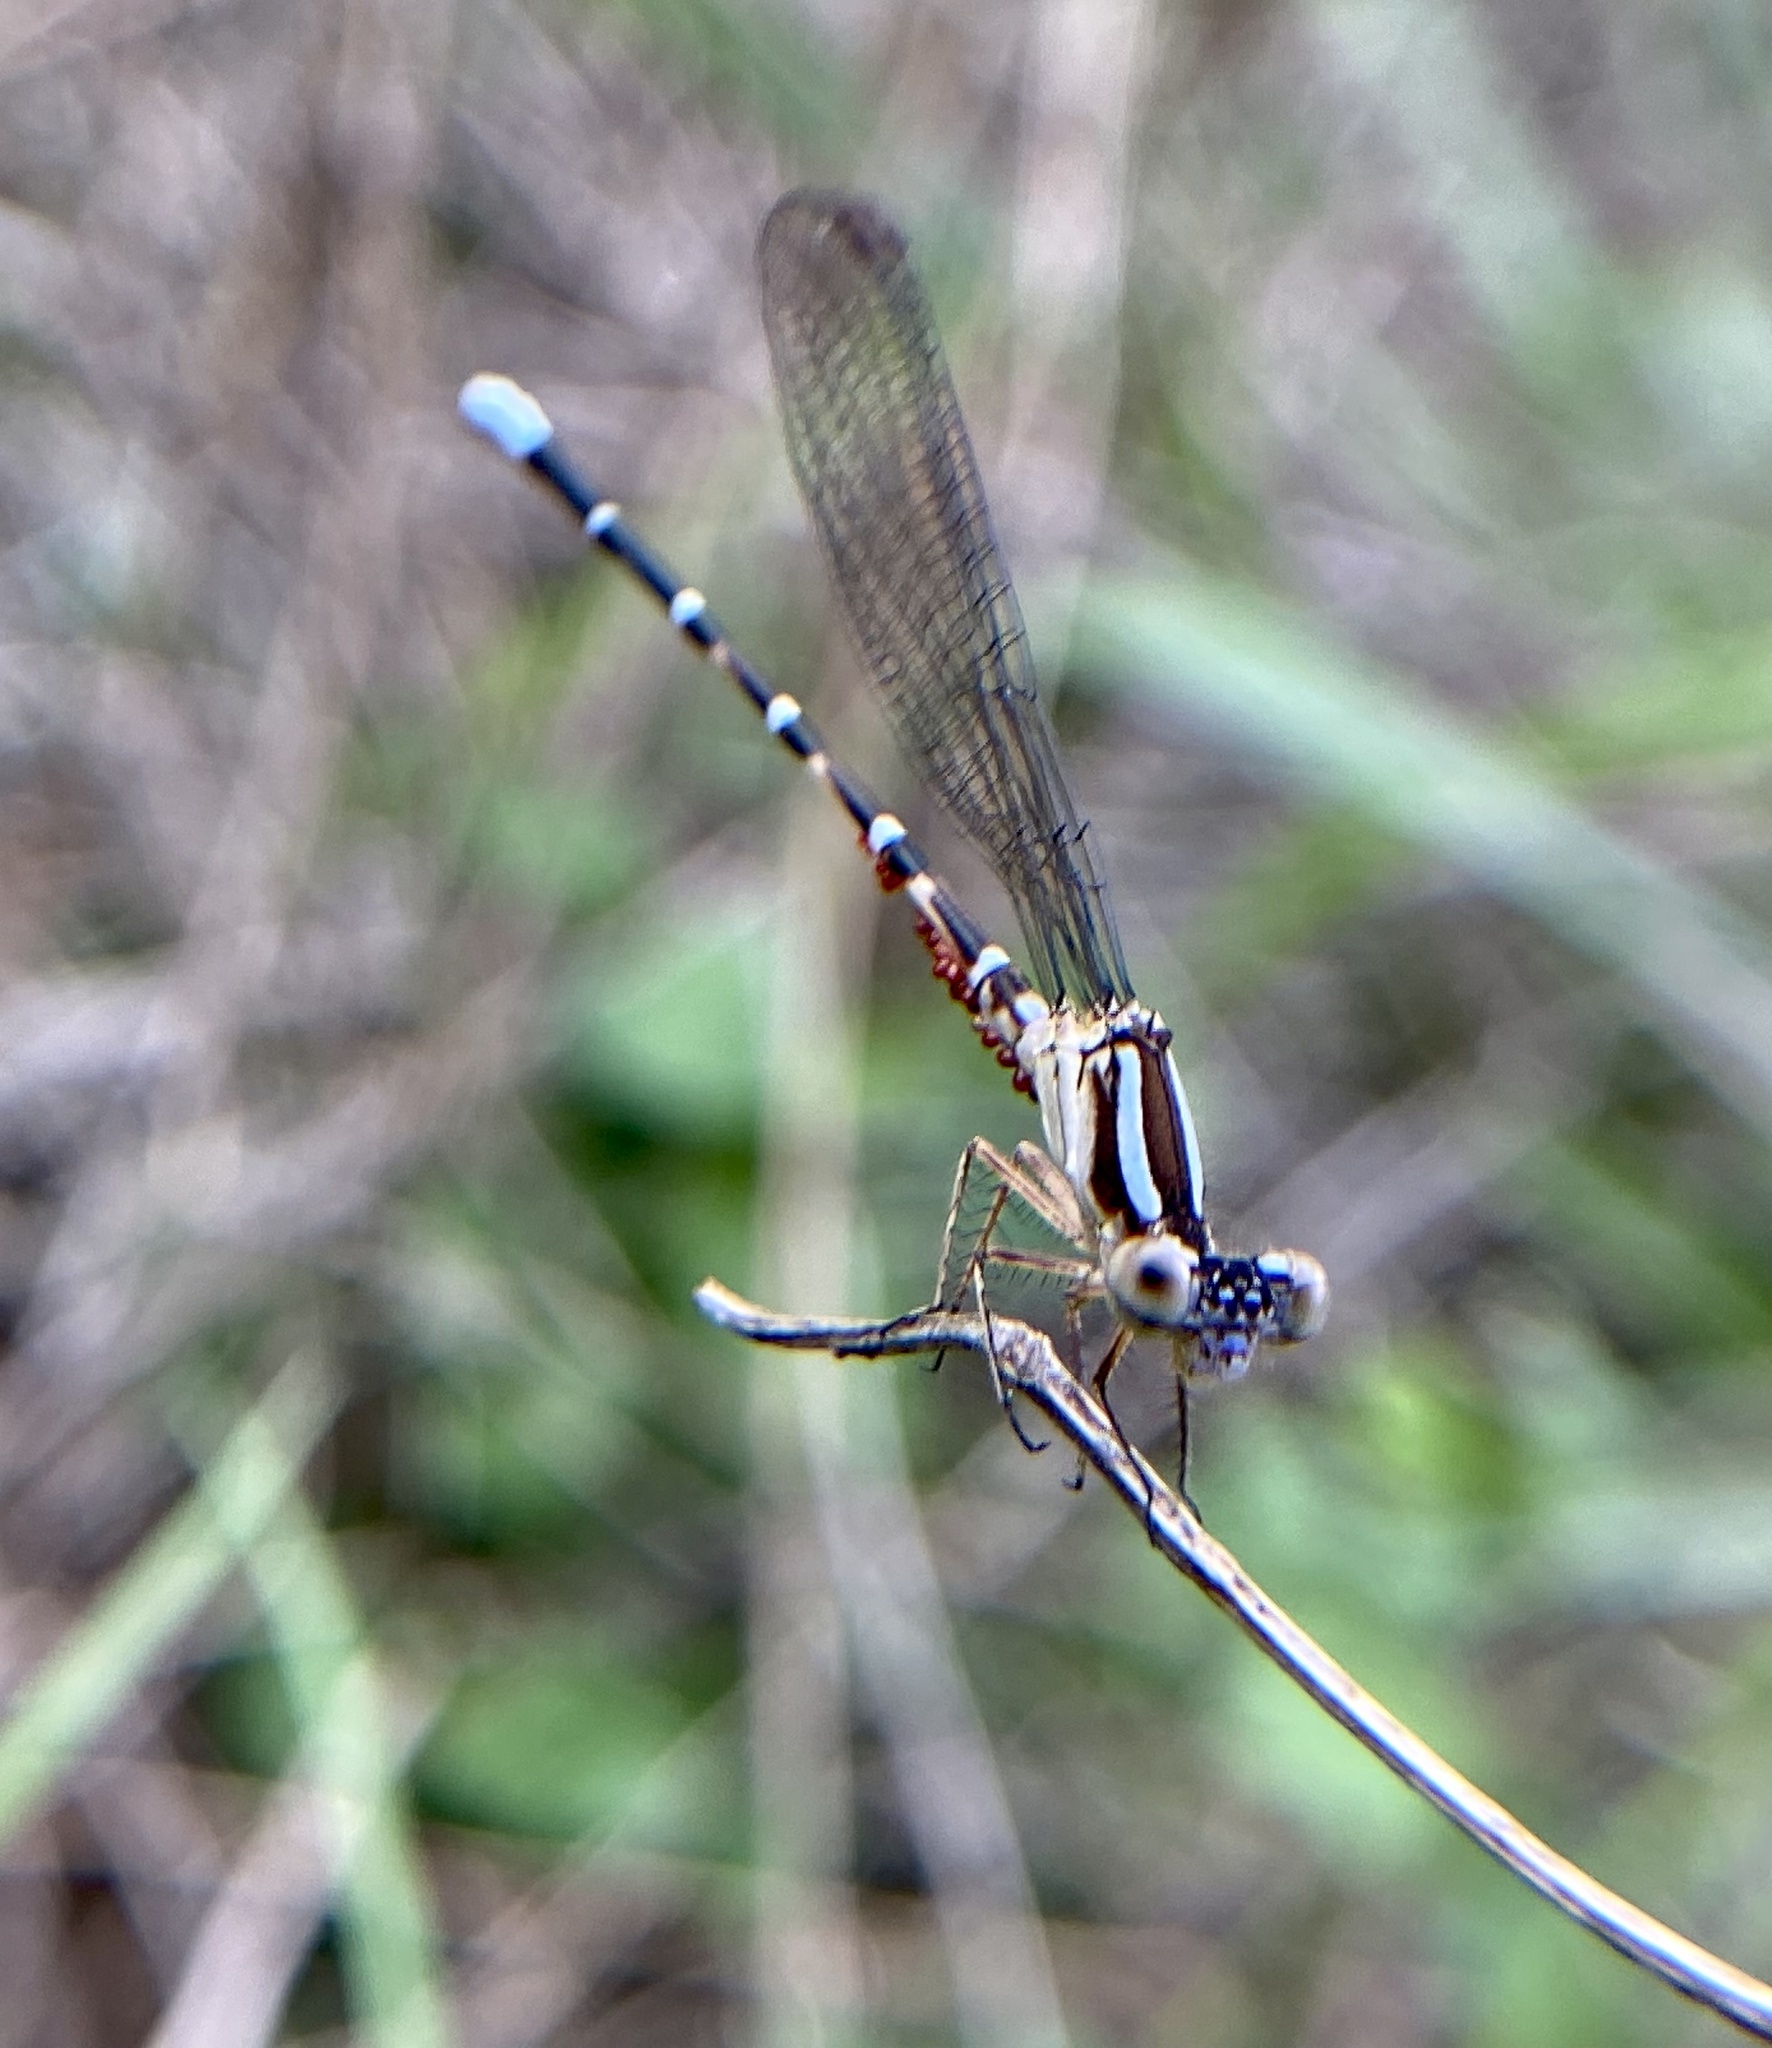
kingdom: Animalia
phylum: Arthropoda
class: Insecta
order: Odonata
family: Coenagrionidae
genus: Argia
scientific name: Argia sedula
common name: Blue-ringed dancer
